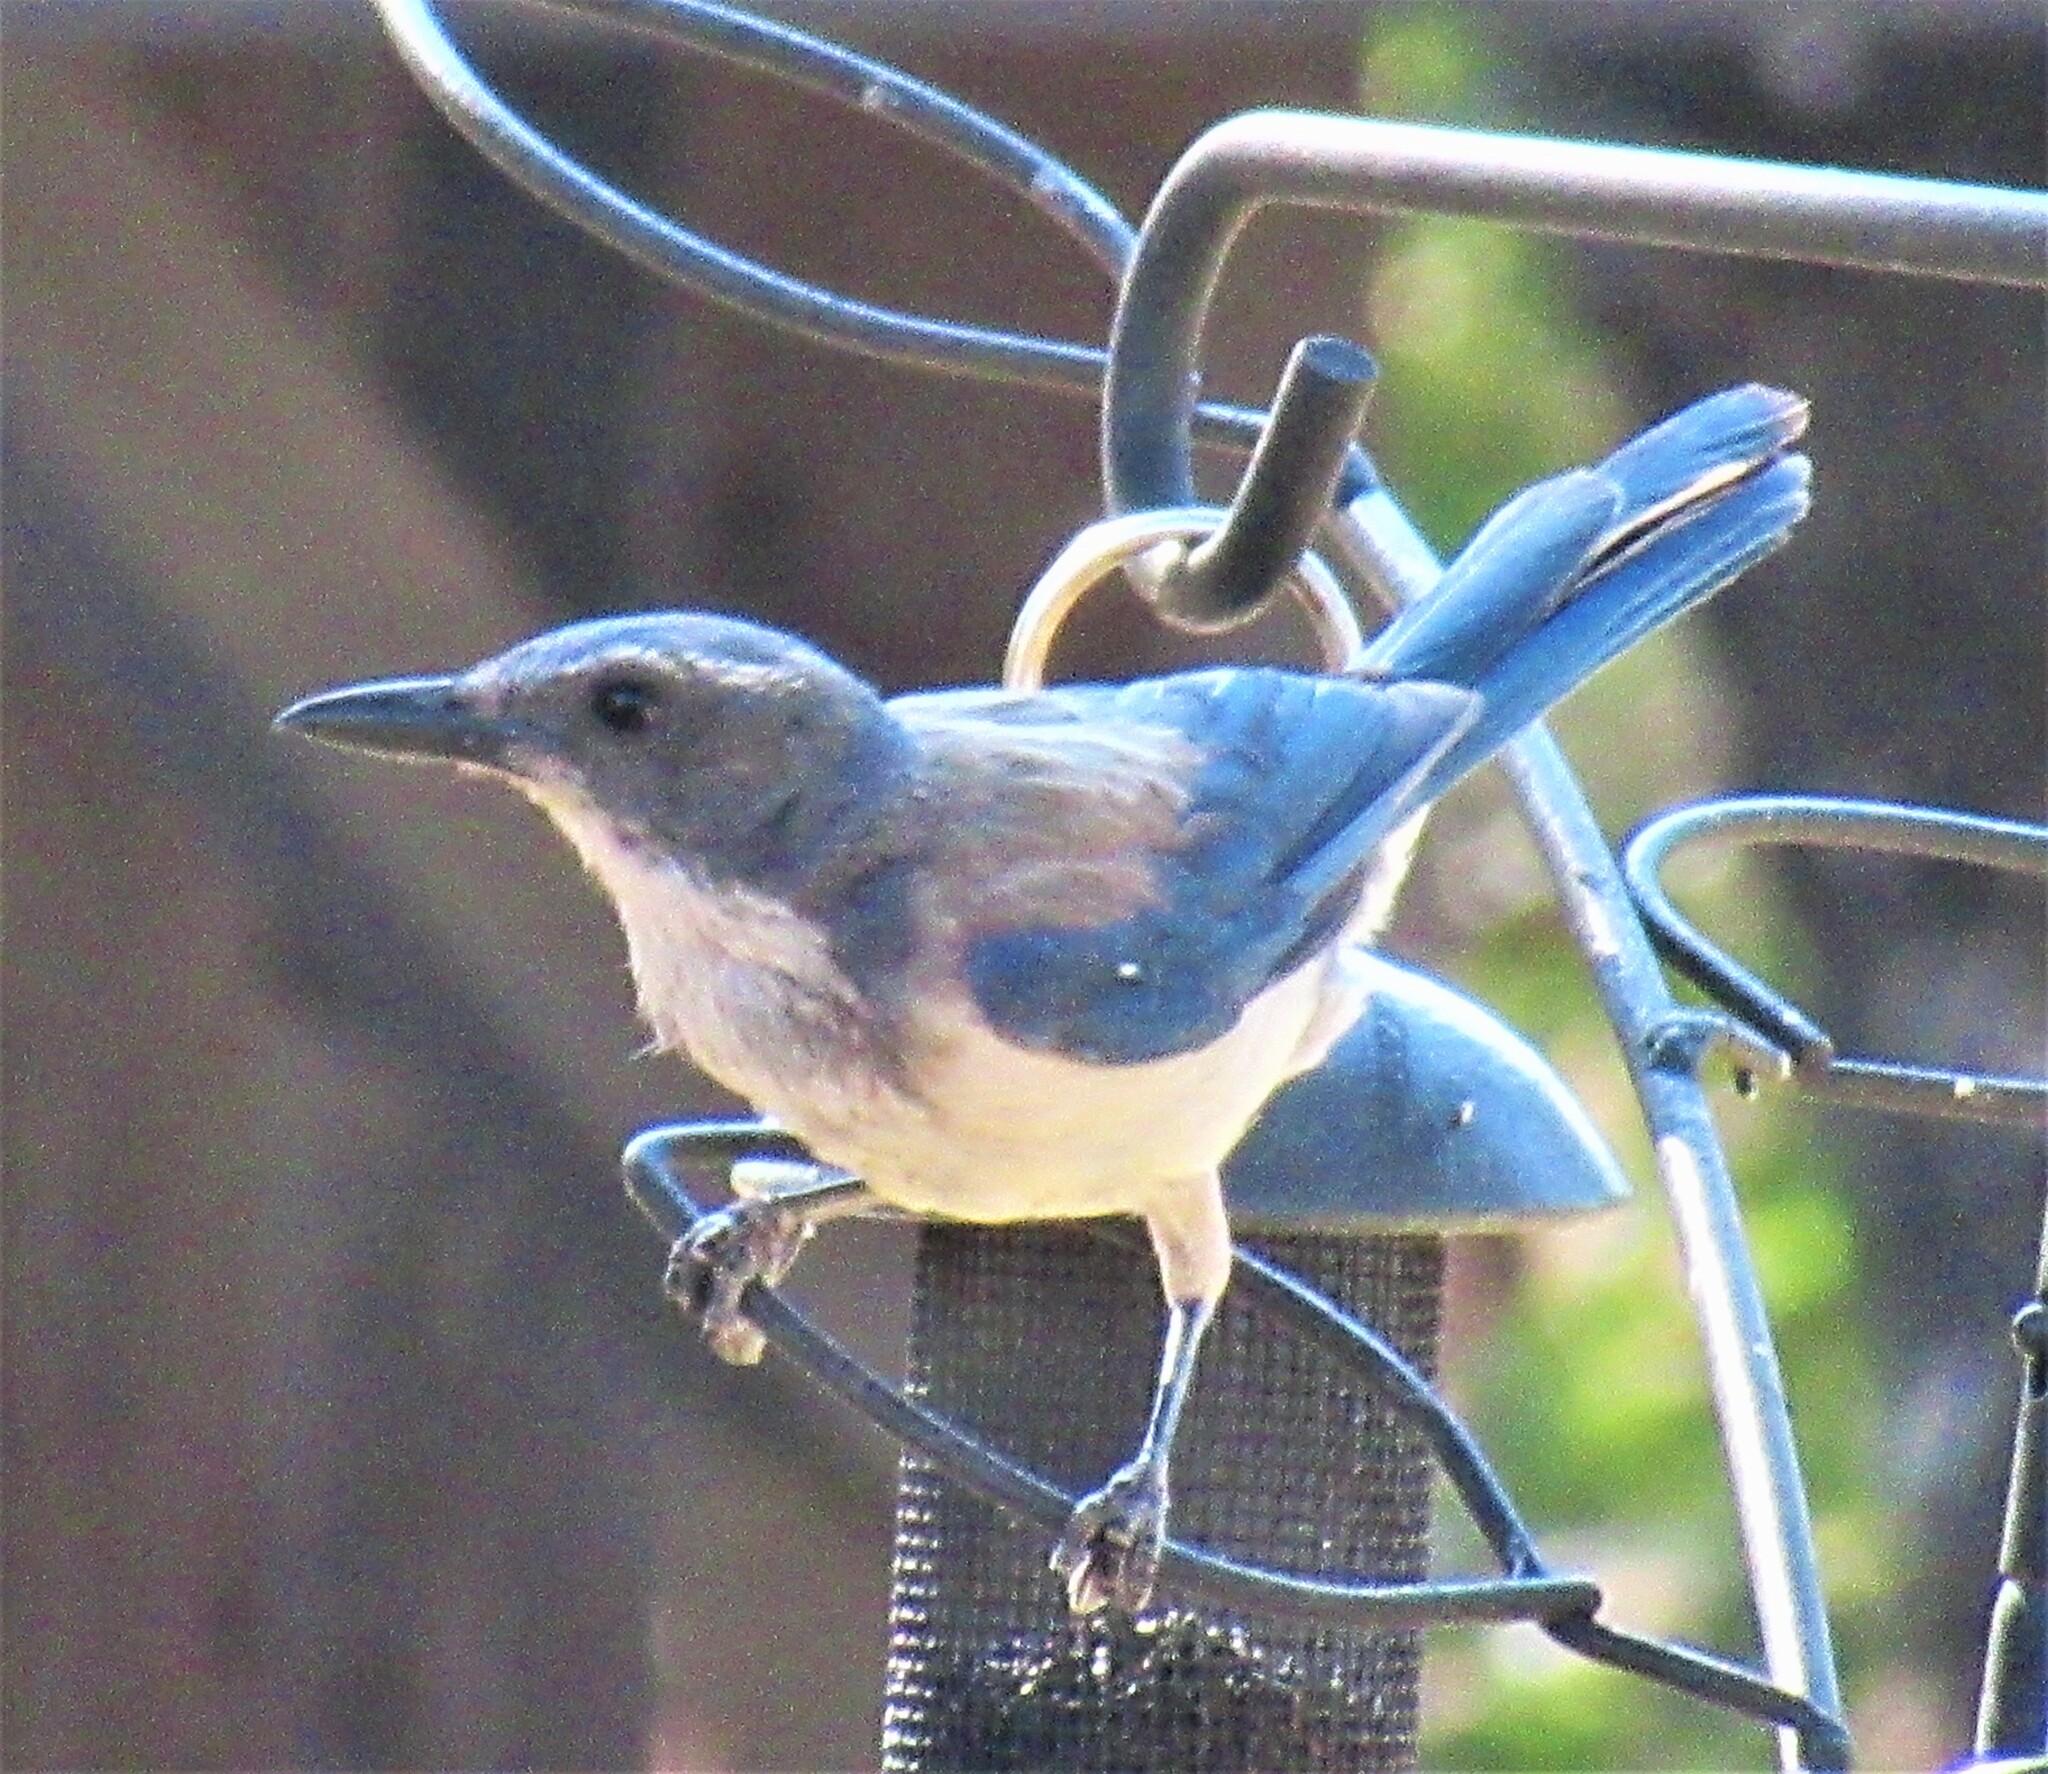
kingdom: Animalia
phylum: Chordata
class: Aves
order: Passeriformes
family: Corvidae
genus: Aphelocoma
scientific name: Aphelocoma californica
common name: California scrub-jay
